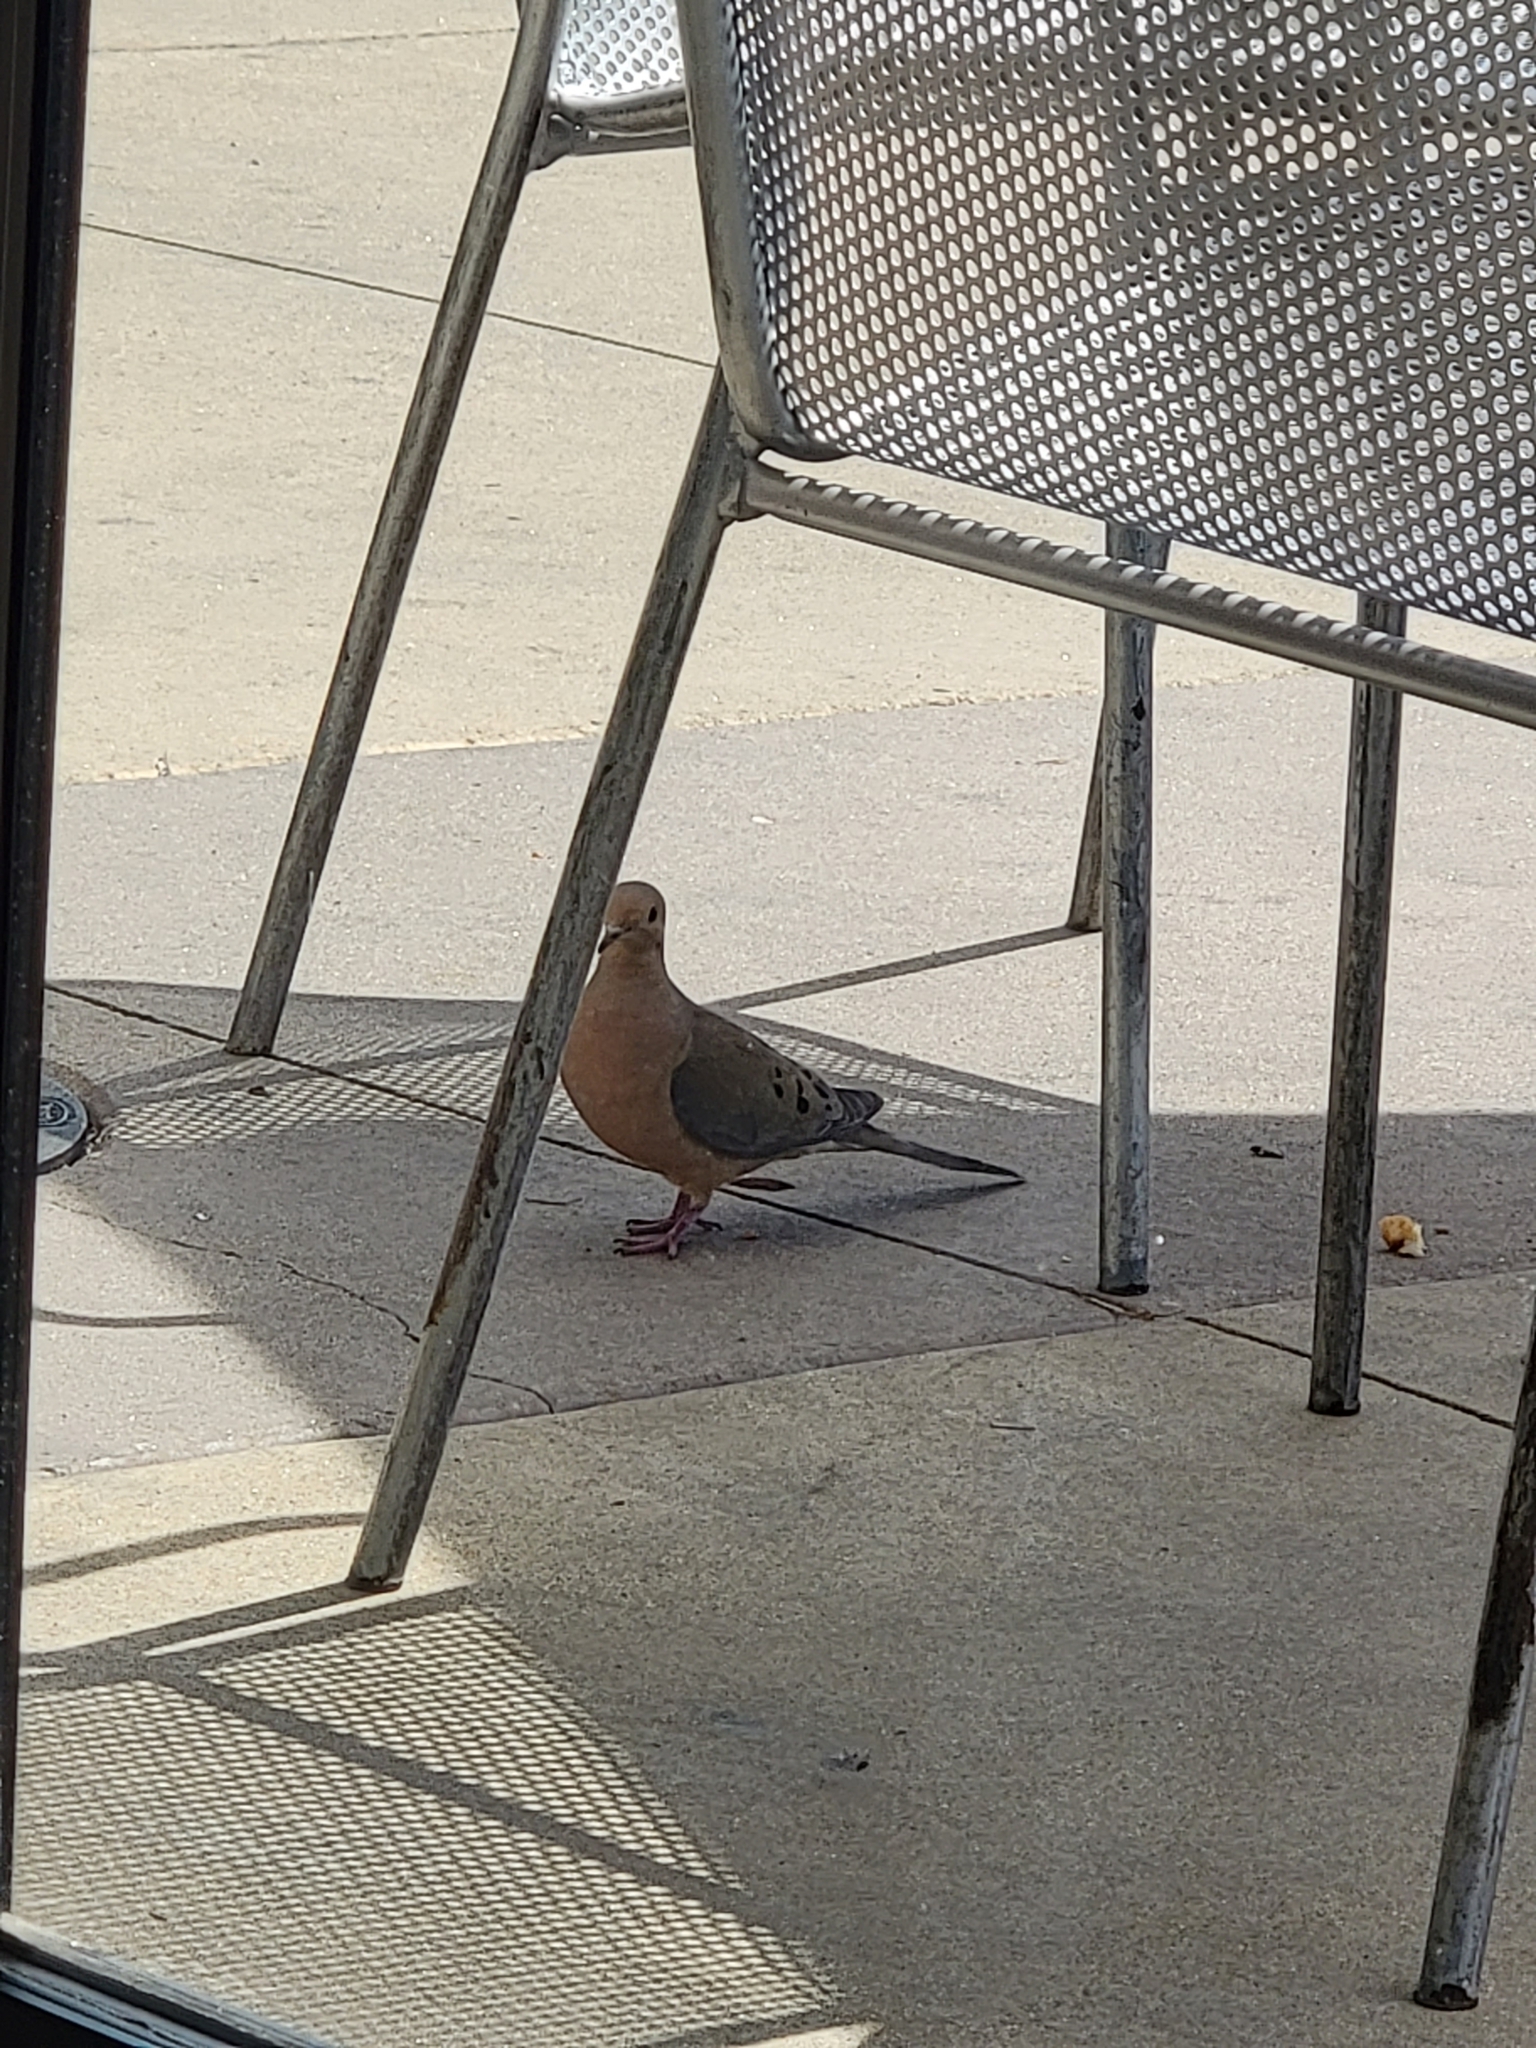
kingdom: Animalia
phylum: Chordata
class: Aves
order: Columbiformes
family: Columbidae
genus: Zenaida
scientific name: Zenaida macroura
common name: Mourning dove
